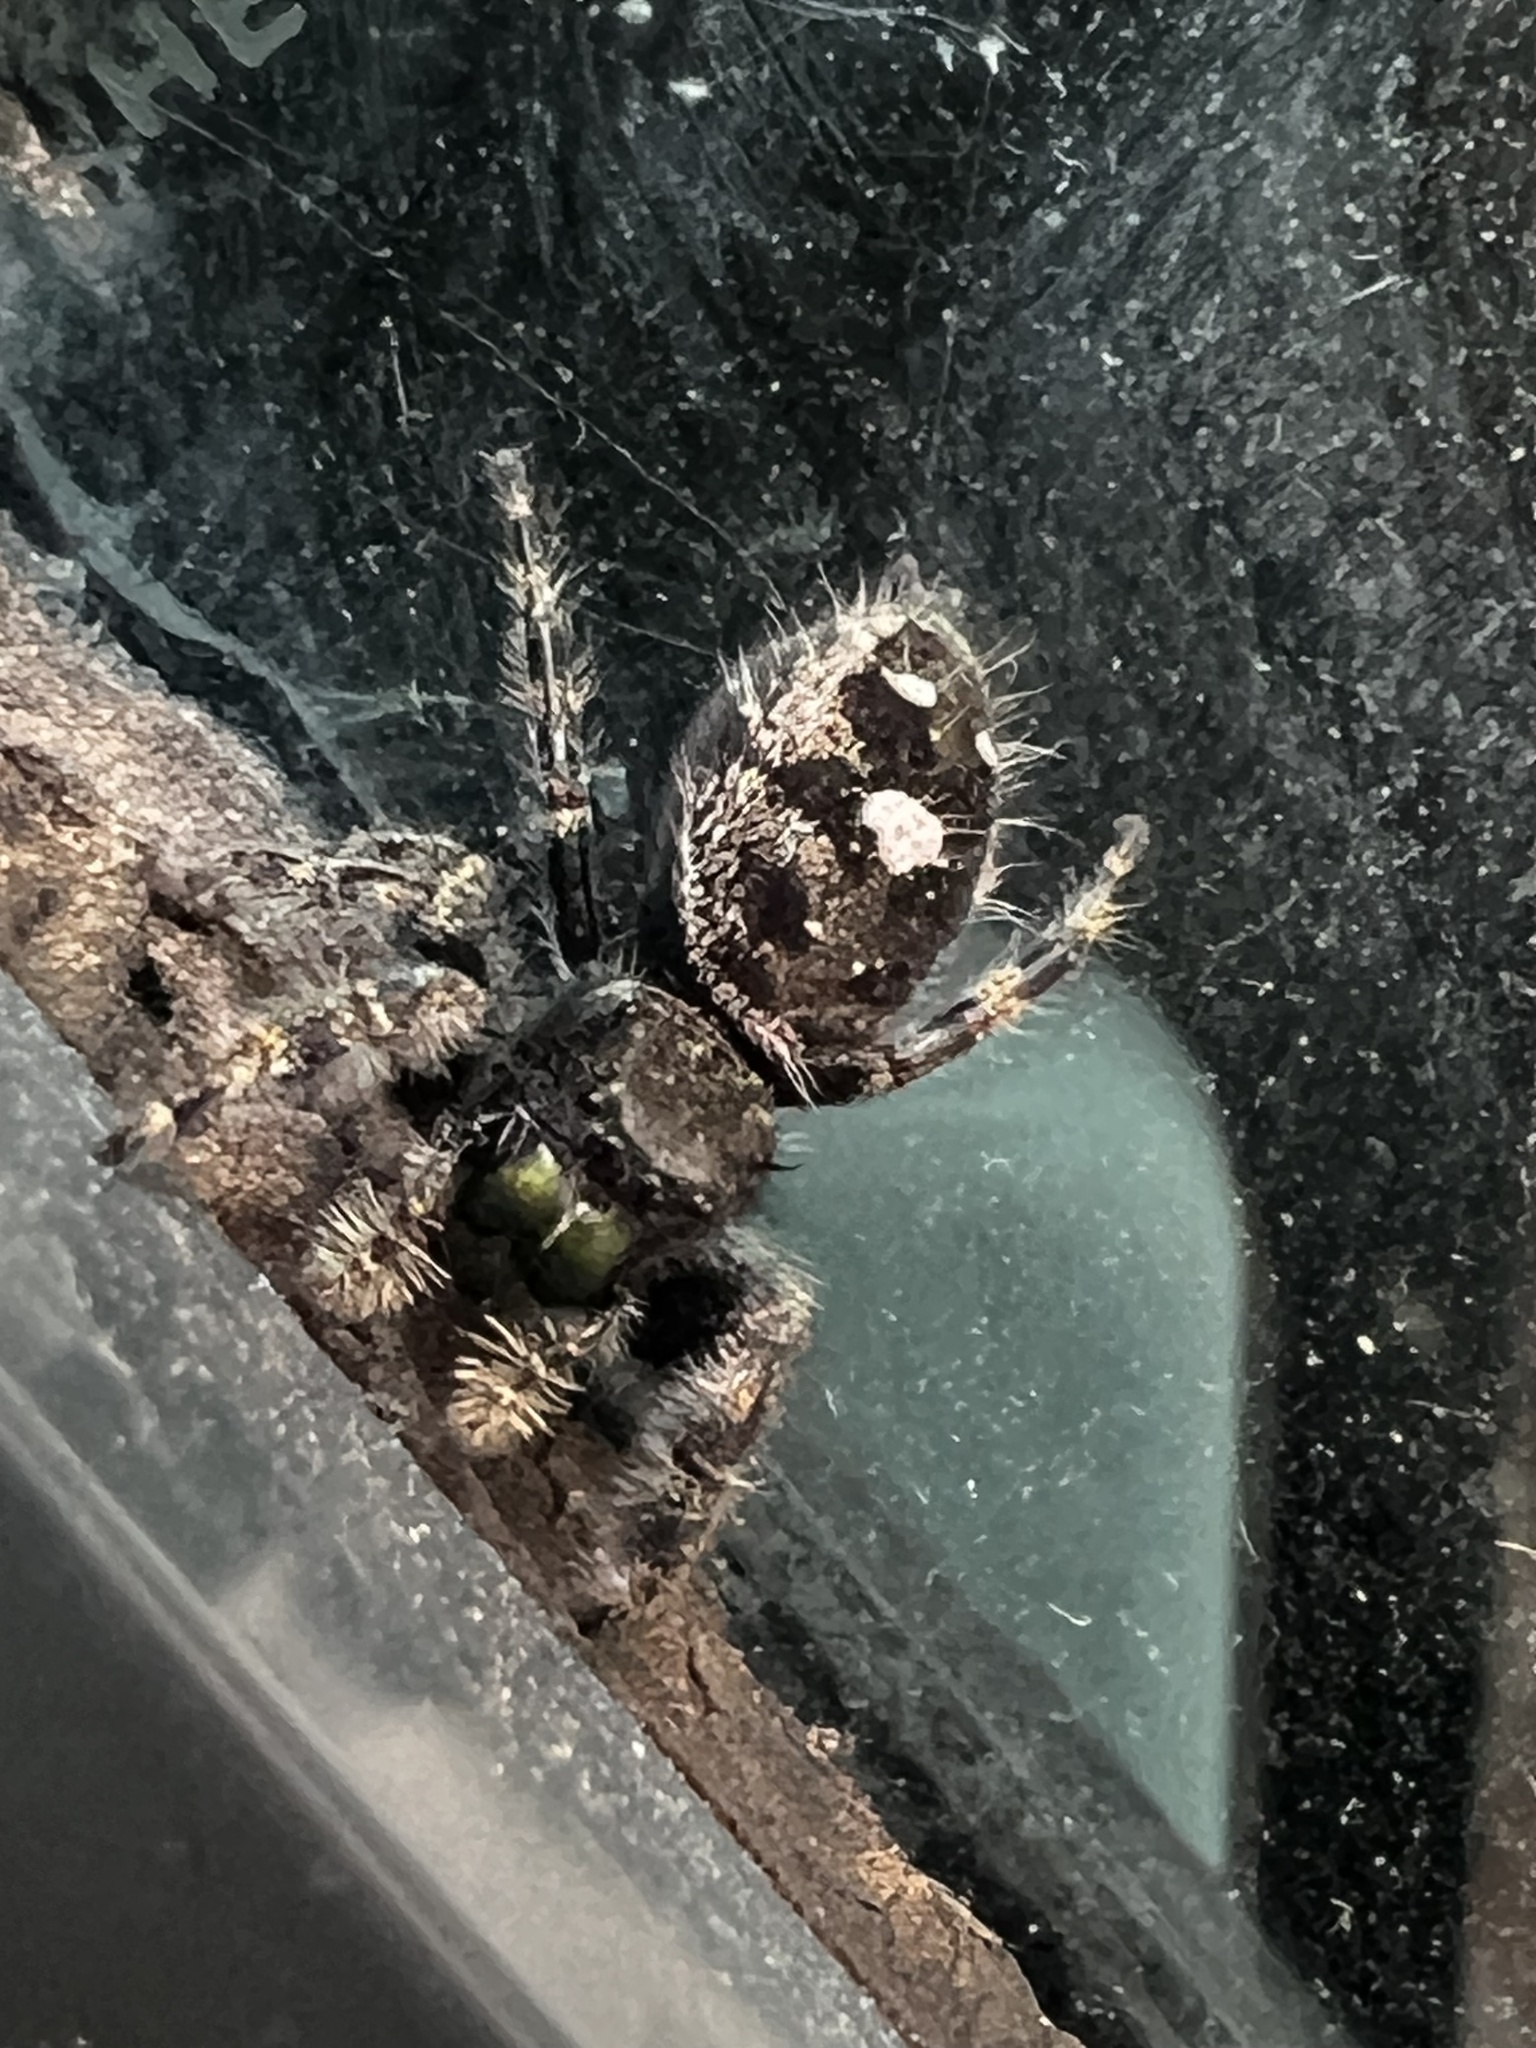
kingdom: Animalia
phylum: Arthropoda
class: Arachnida
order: Araneae
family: Salticidae
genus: Phidippus
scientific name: Phidippus audax
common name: Bold jumper
